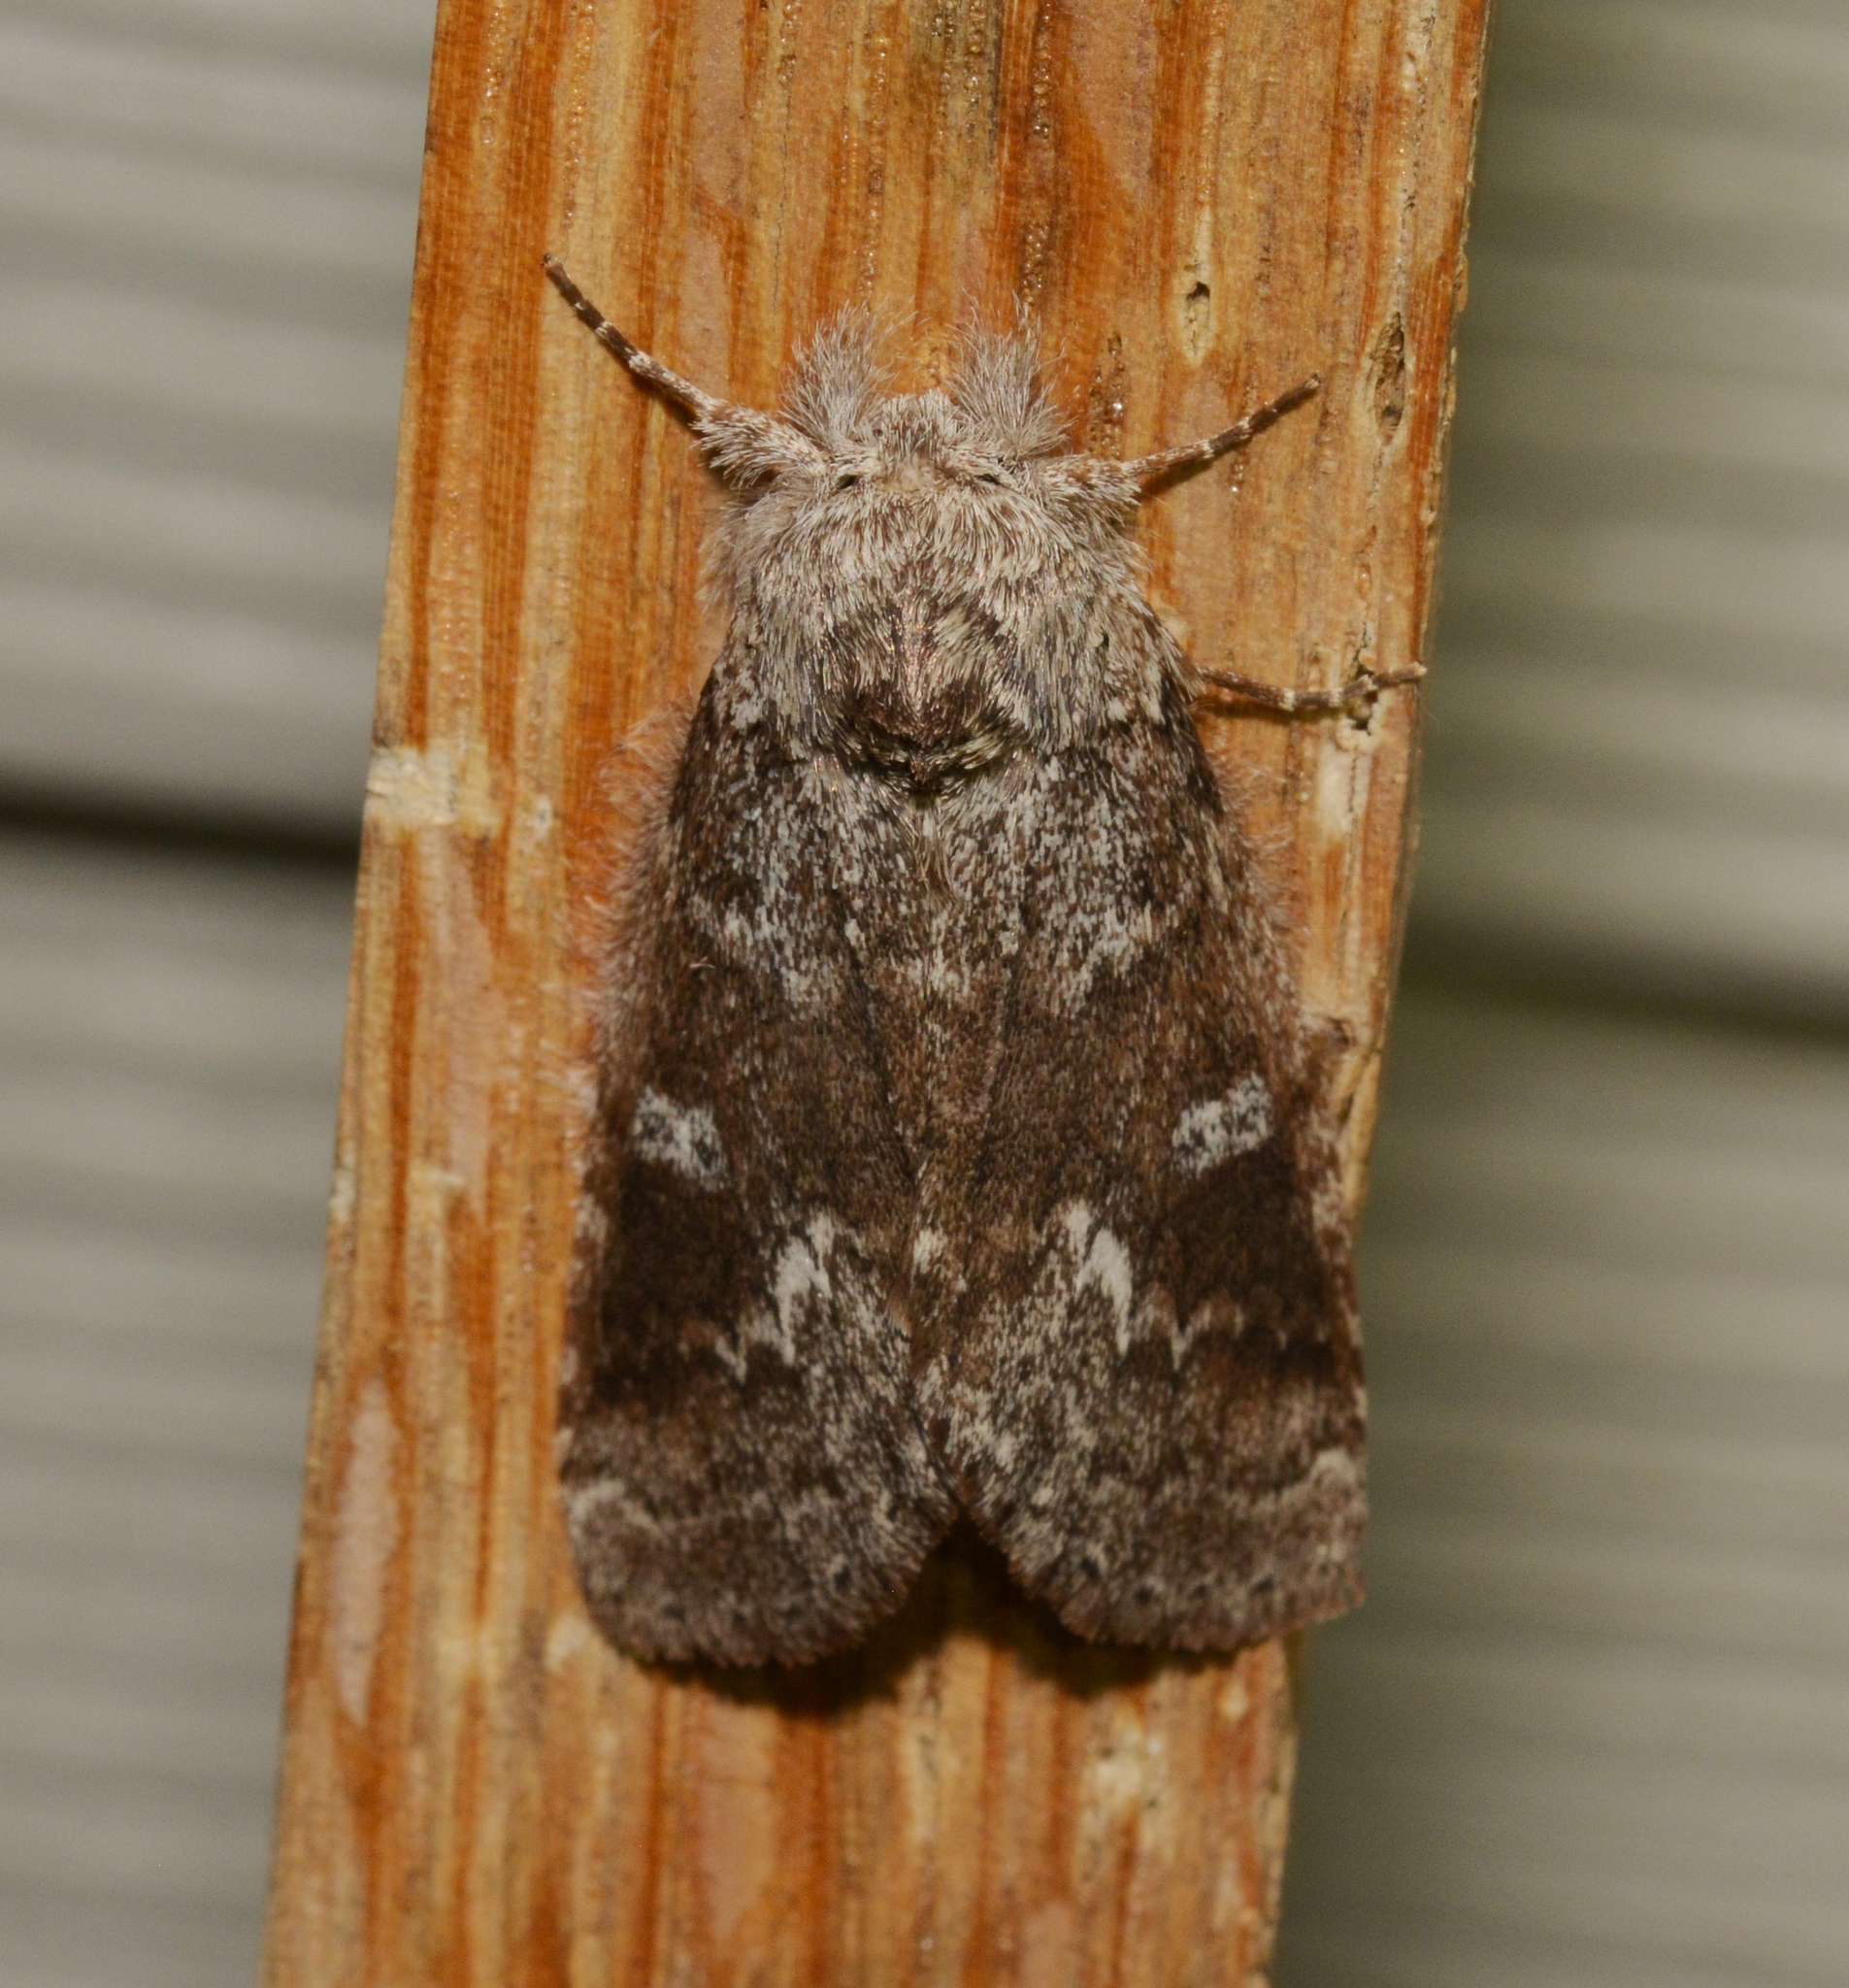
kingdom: Animalia
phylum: Arthropoda
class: Insecta
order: Lepidoptera
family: Notodontidae
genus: Lochmaeus
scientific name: Lochmaeus manteo
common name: Variable oakleaf caterpillar moth
